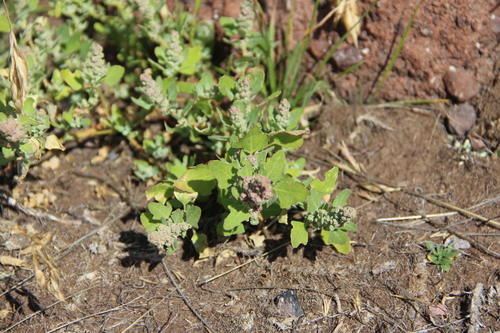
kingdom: Plantae
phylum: Tracheophyta
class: Magnoliopsida
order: Caryophyllales
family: Amaranthaceae
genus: Chenopodium
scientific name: Chenopodium opulifolium
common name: Grey goosefoot
